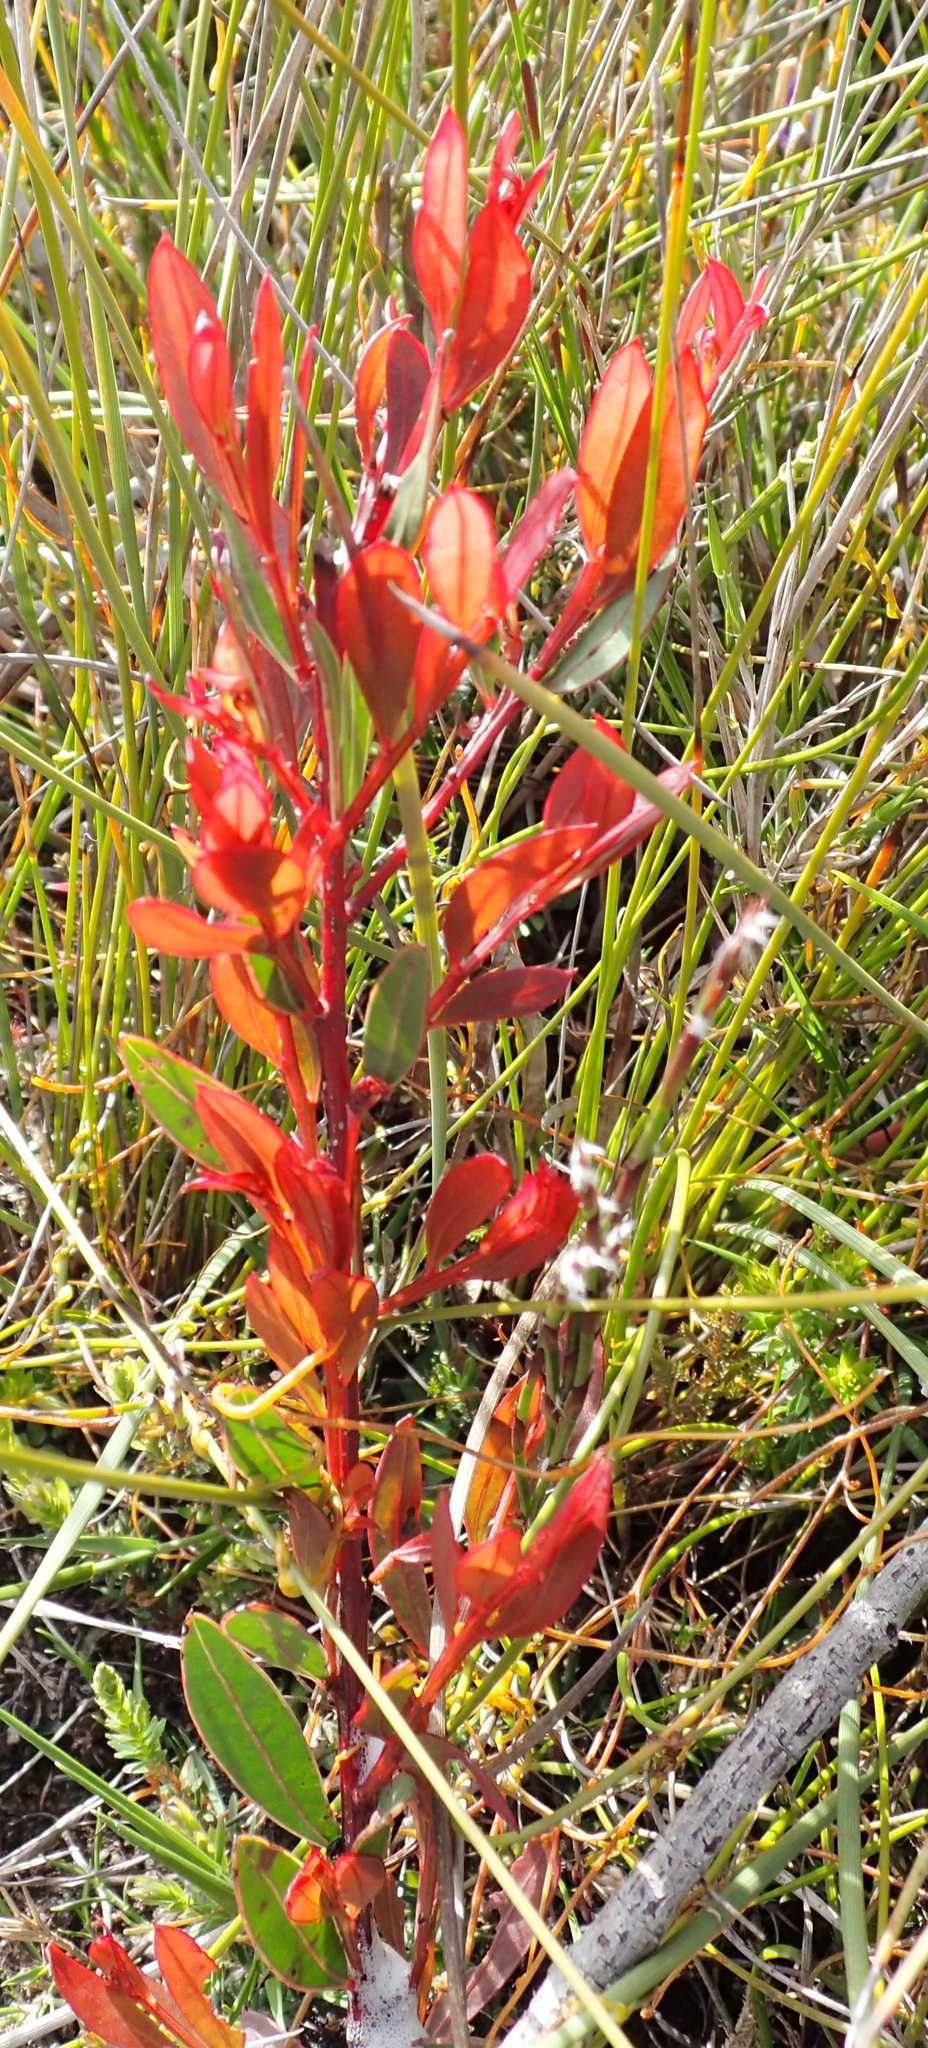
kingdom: Plantae
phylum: Tracheophyta
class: Magnoliopsida
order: Fabales
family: Fabaceae
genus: Acacia
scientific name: Acacia myrtifolia
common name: Myrtle wattle
